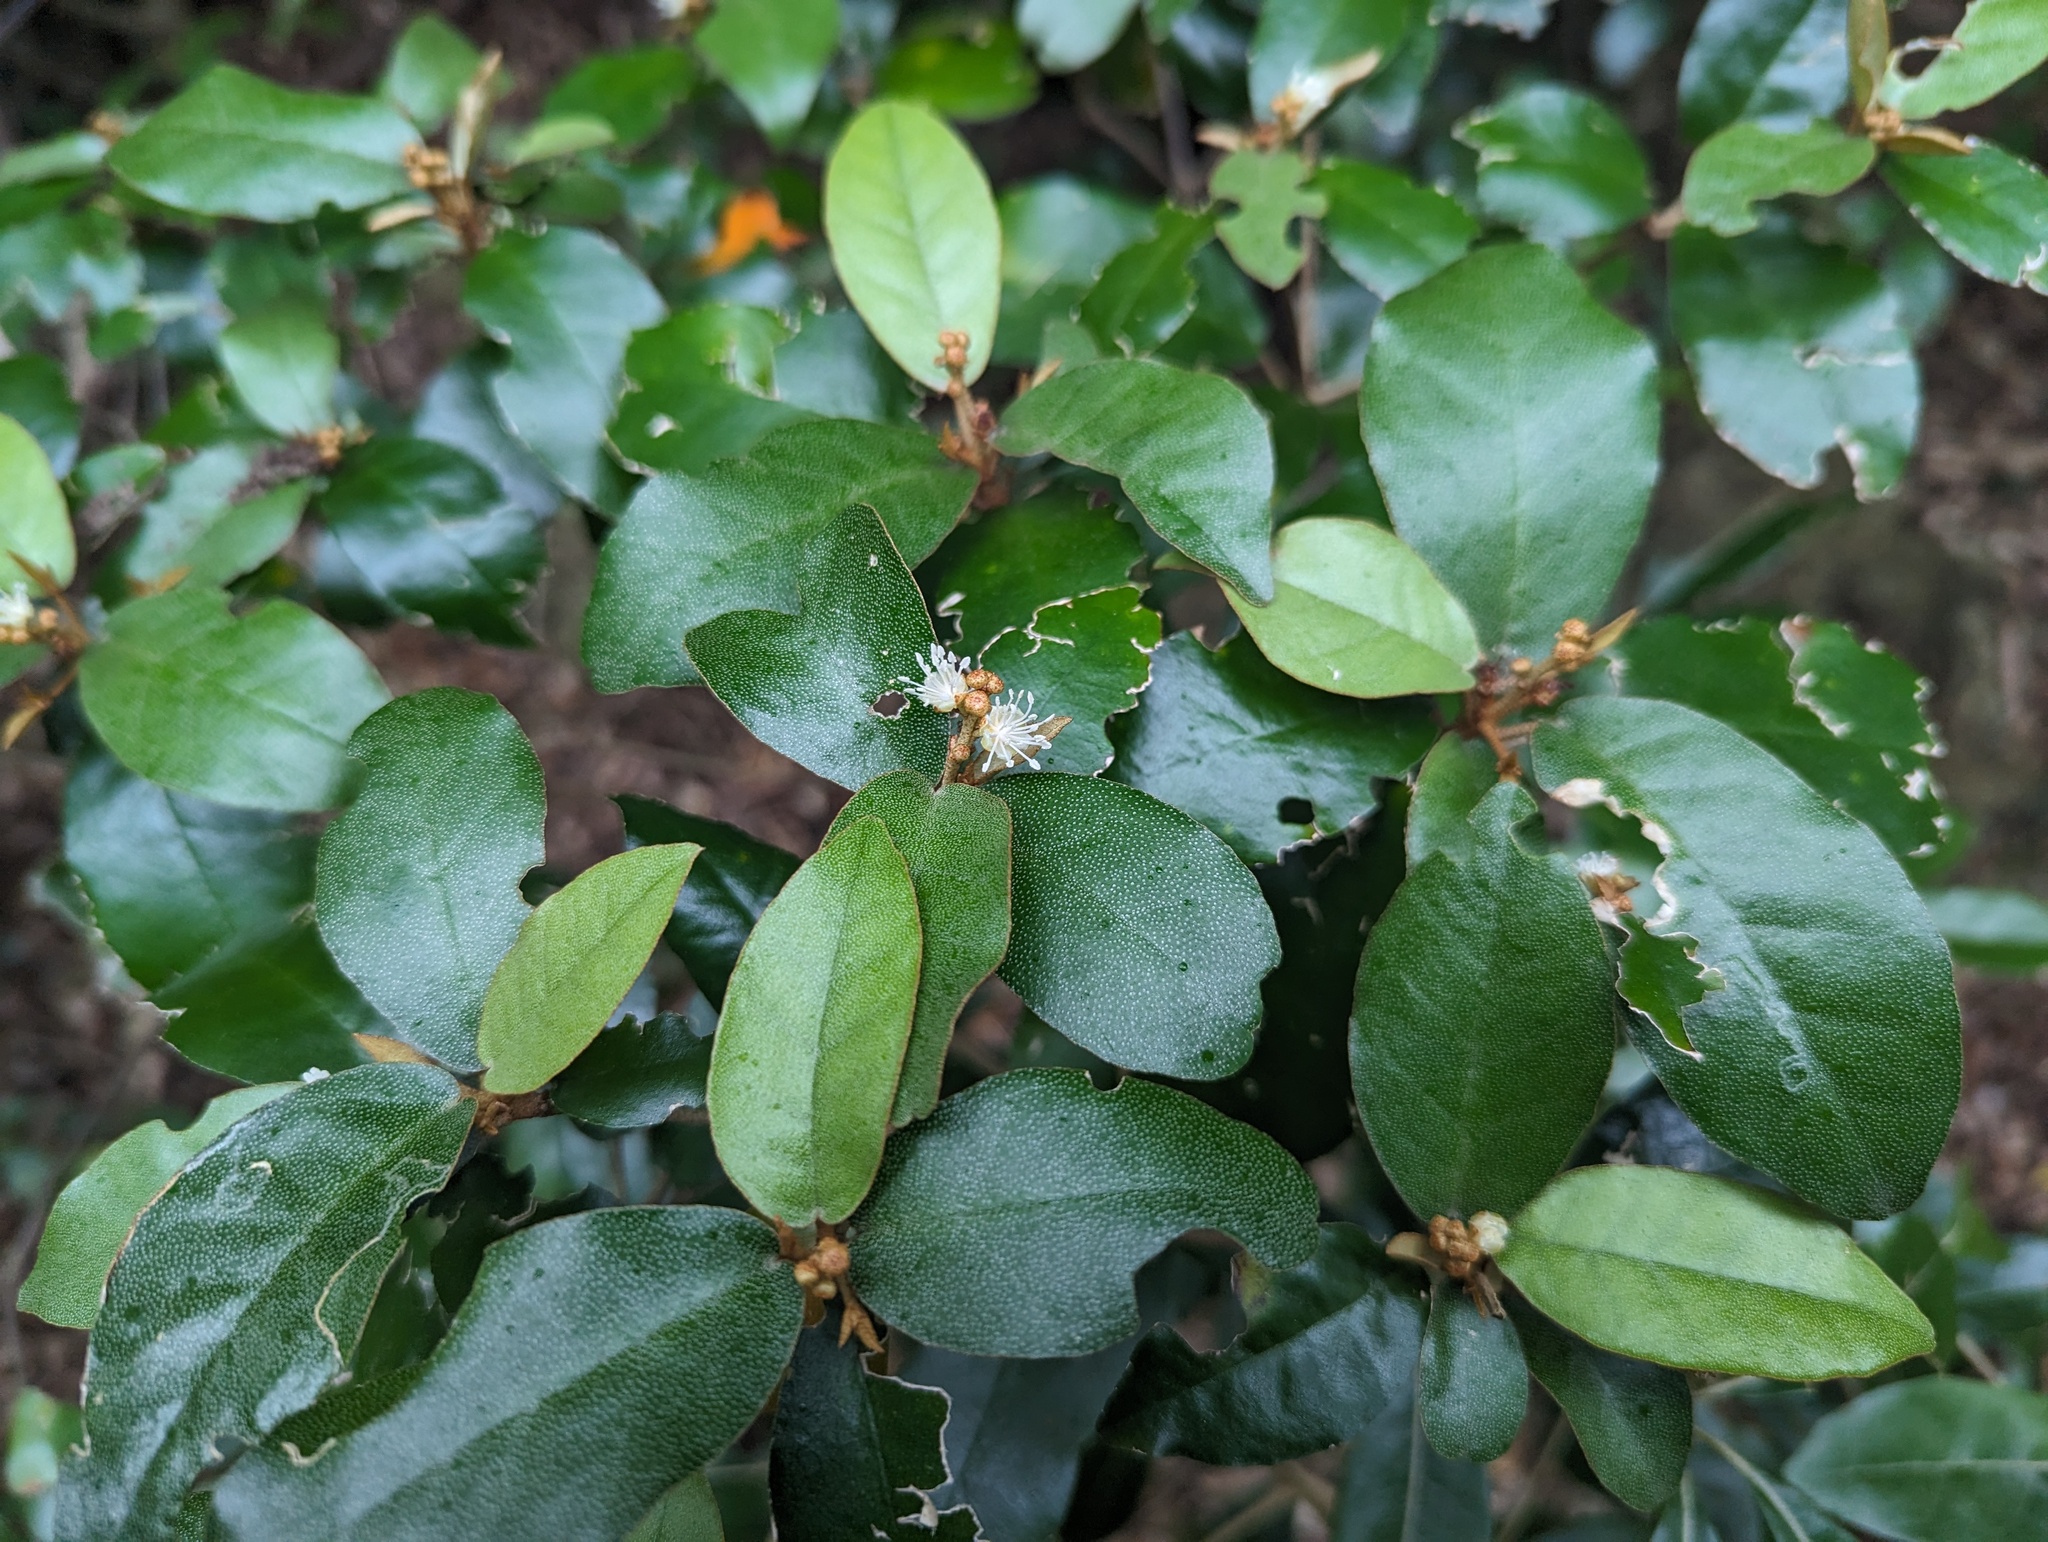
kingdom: Plantae
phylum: Tracheophyta
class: Magnoliopsida
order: Malpighiales
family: Euphorbiaceae
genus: Croton
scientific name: Croton cascarilloides
